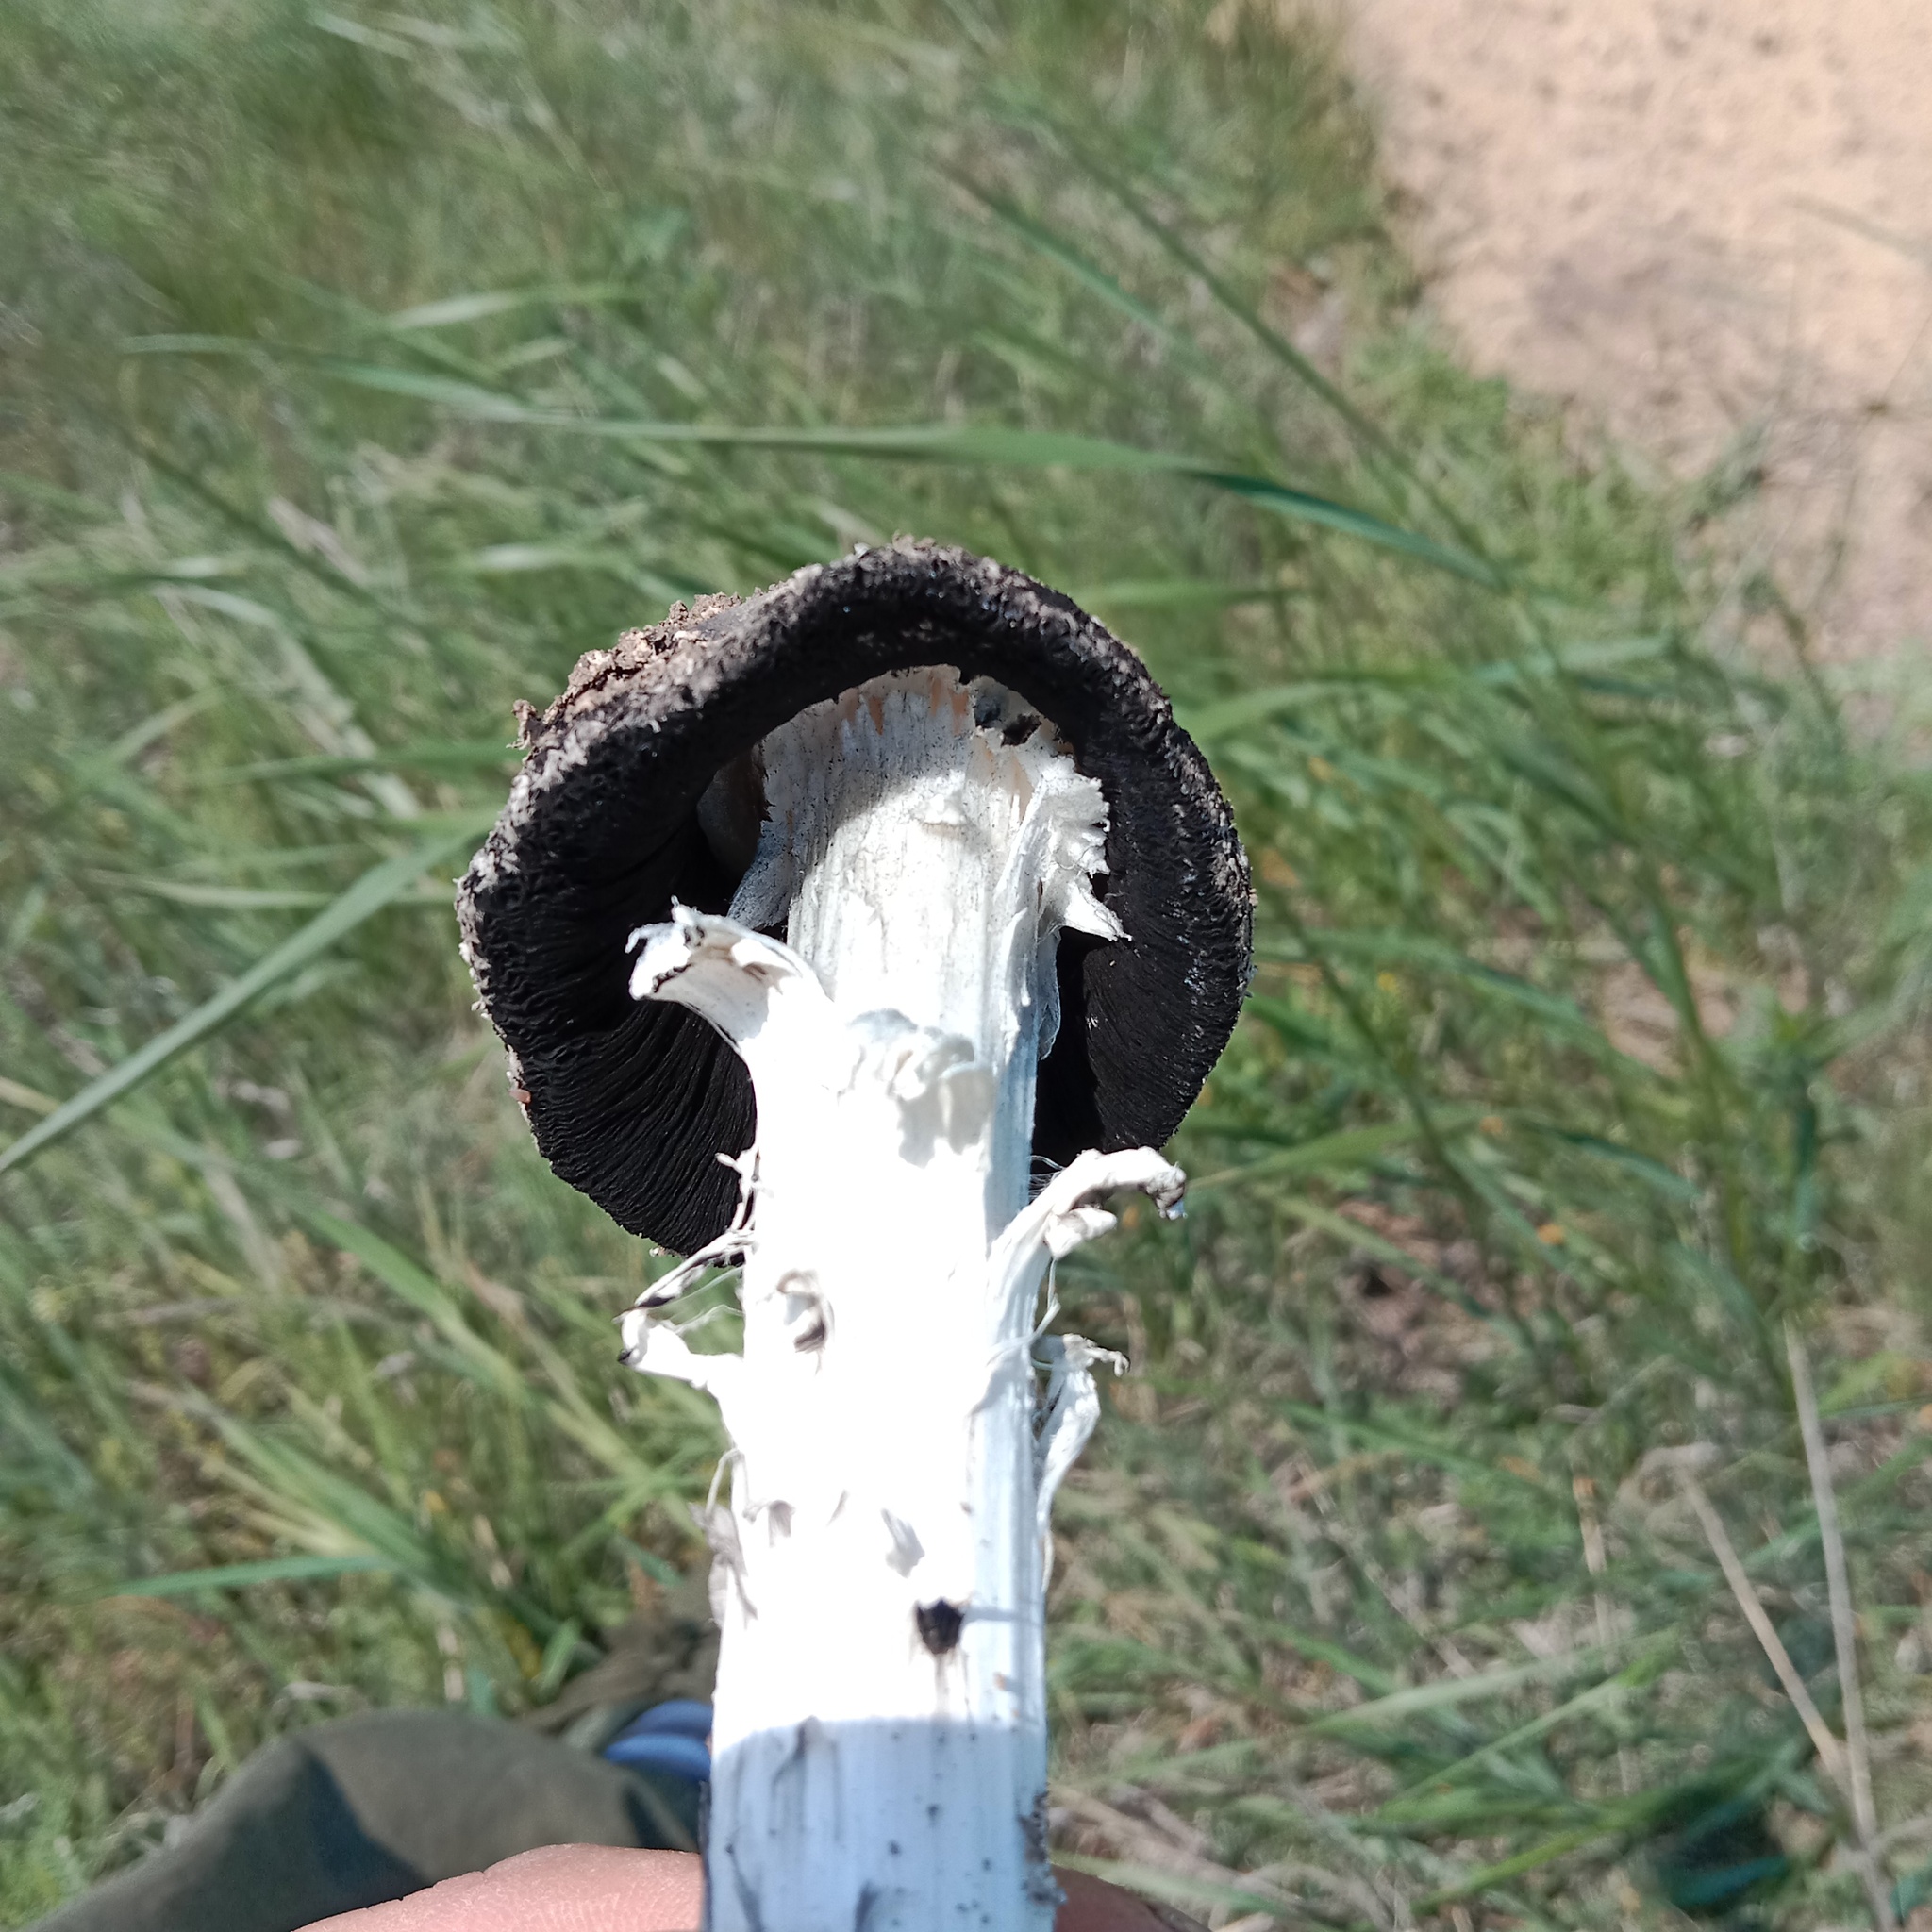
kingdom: Fungi
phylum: Basidiomycota
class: Agaricomycetes
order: Agaricales
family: Agaricaceae
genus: Montagnea
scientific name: Montagnea arenaria
